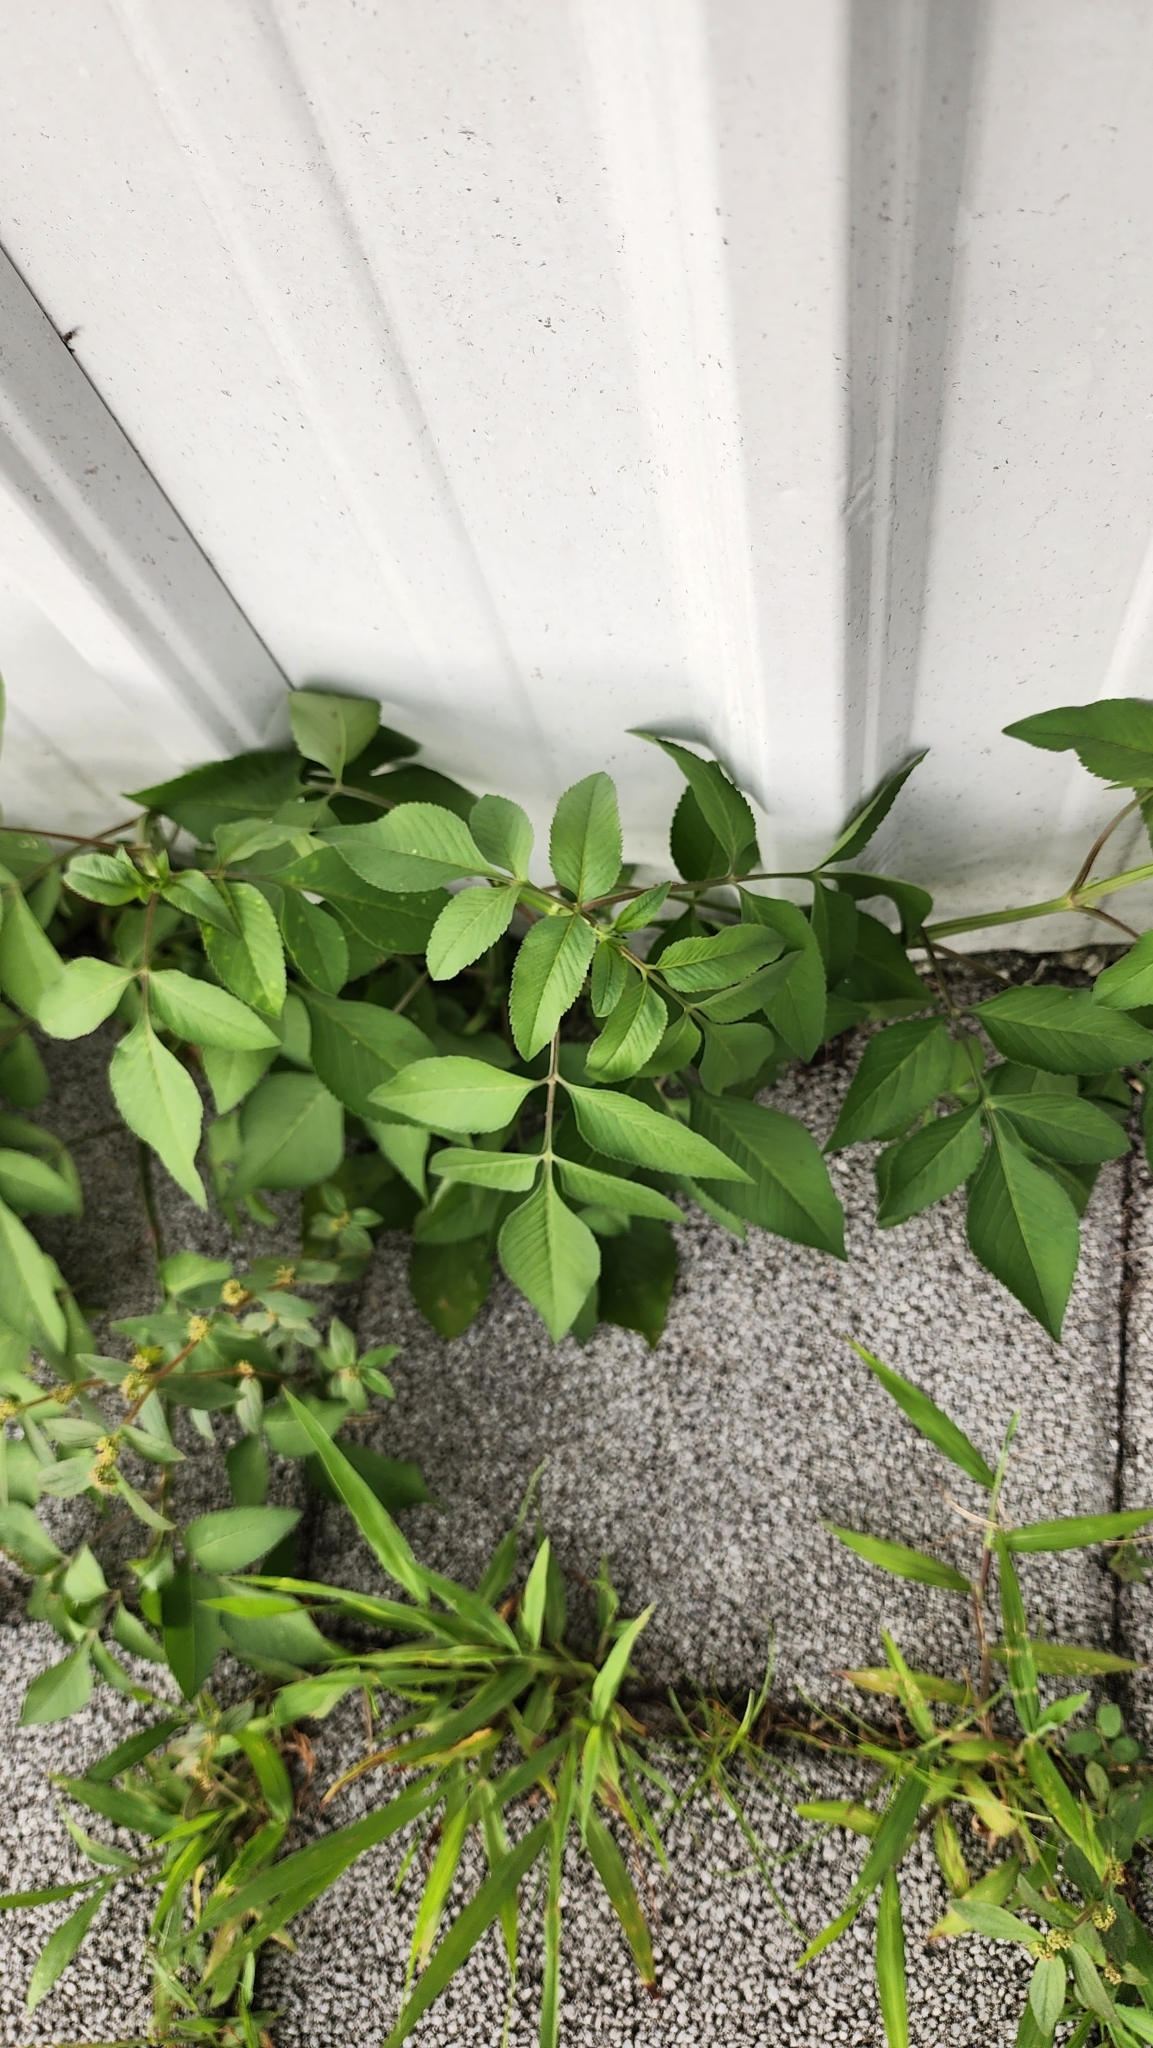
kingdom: Plantae
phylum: Tracheophyta
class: Magnoliopsida
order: Asterales
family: Asteraceae
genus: Bidens
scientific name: Bidens alba
